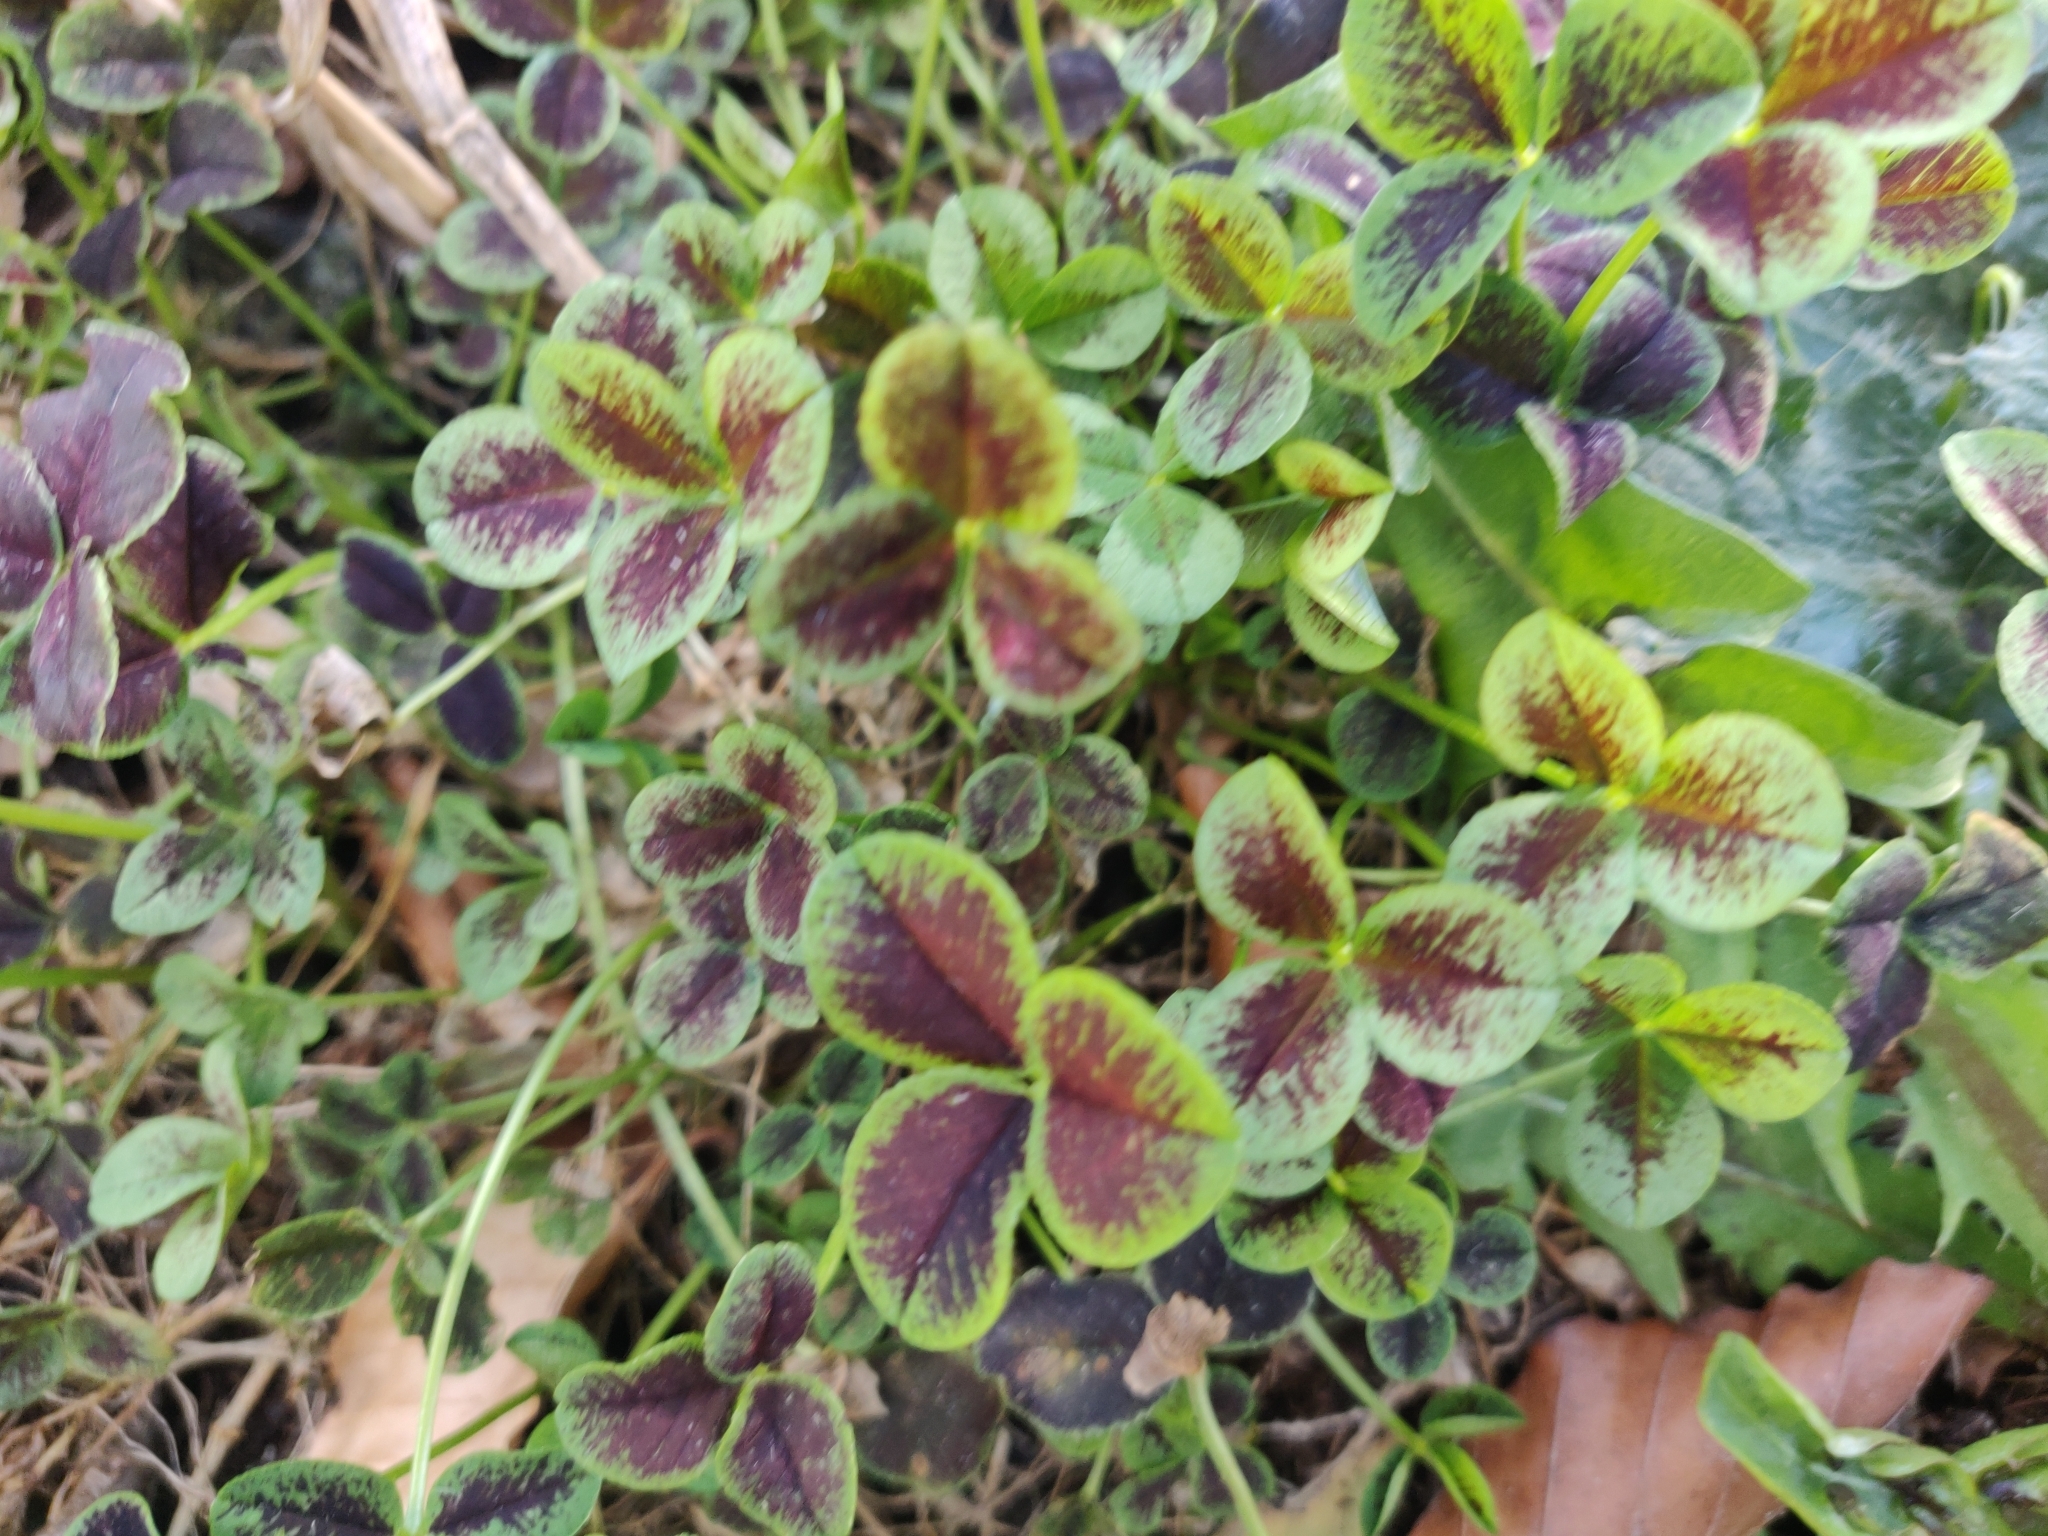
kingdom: Plantae
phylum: Tracheophyta
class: Magnoliopsida
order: Fabales
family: Fabaceae
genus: Trifolium
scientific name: Trifolium repens
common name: White clover
